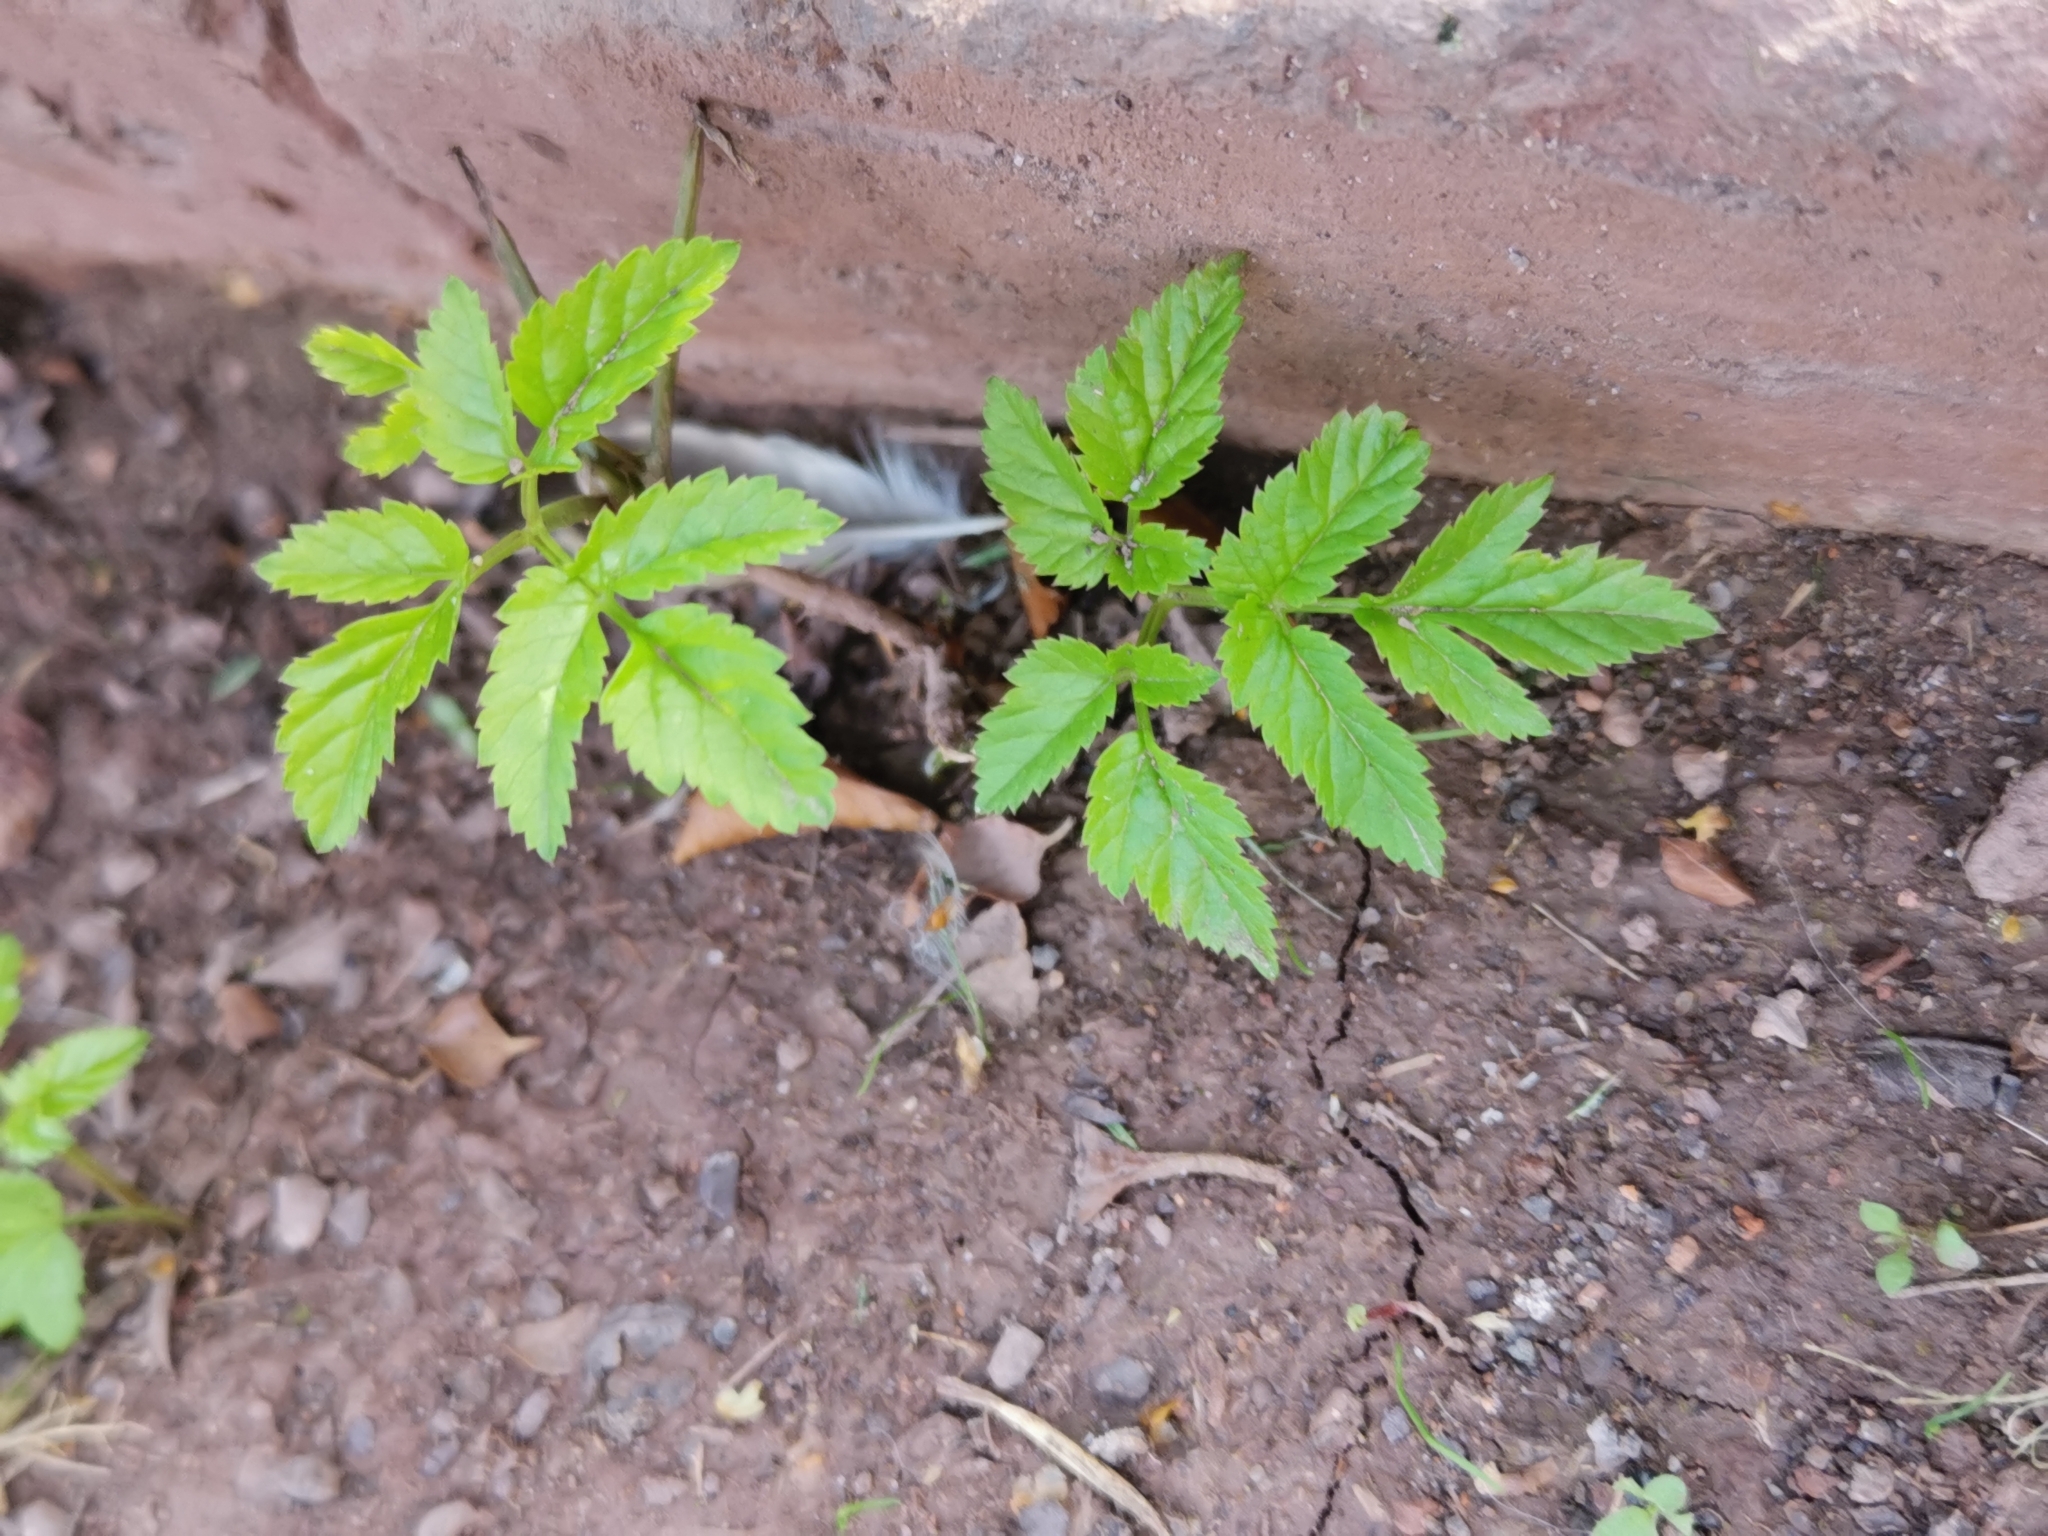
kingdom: Plantae
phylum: Tracheophyta
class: Magnoliopsida
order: Apiales
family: Apiaceae
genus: Aegopodium
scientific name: Aegopodium podagraria
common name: Ground-elder
